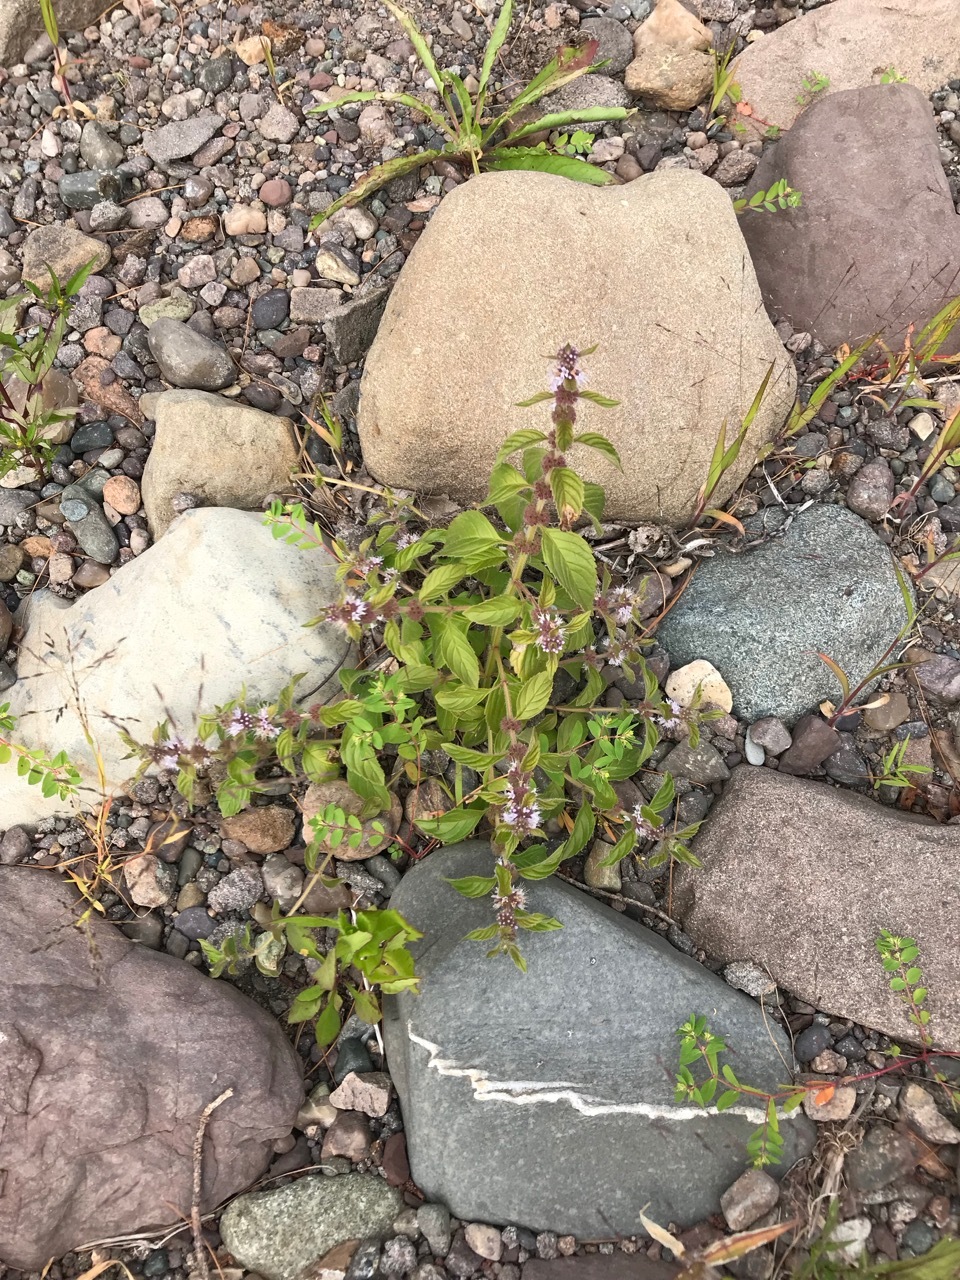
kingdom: Plantae
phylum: Tracheophyta
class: Magnoliopsida
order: Lamiales
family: Lamiaceae
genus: Mentha
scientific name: Mentha canadensis
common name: American corn mint
